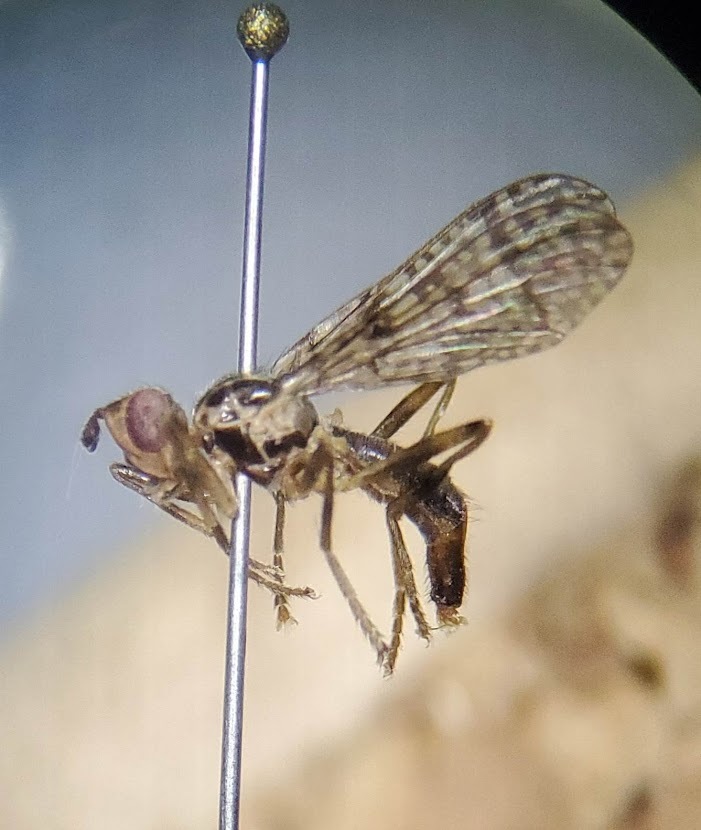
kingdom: Animalia
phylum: Arthropoda
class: Insecta
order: Diptera
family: Pyrgotidae
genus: Boreothrinax
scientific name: Boreothrinax
